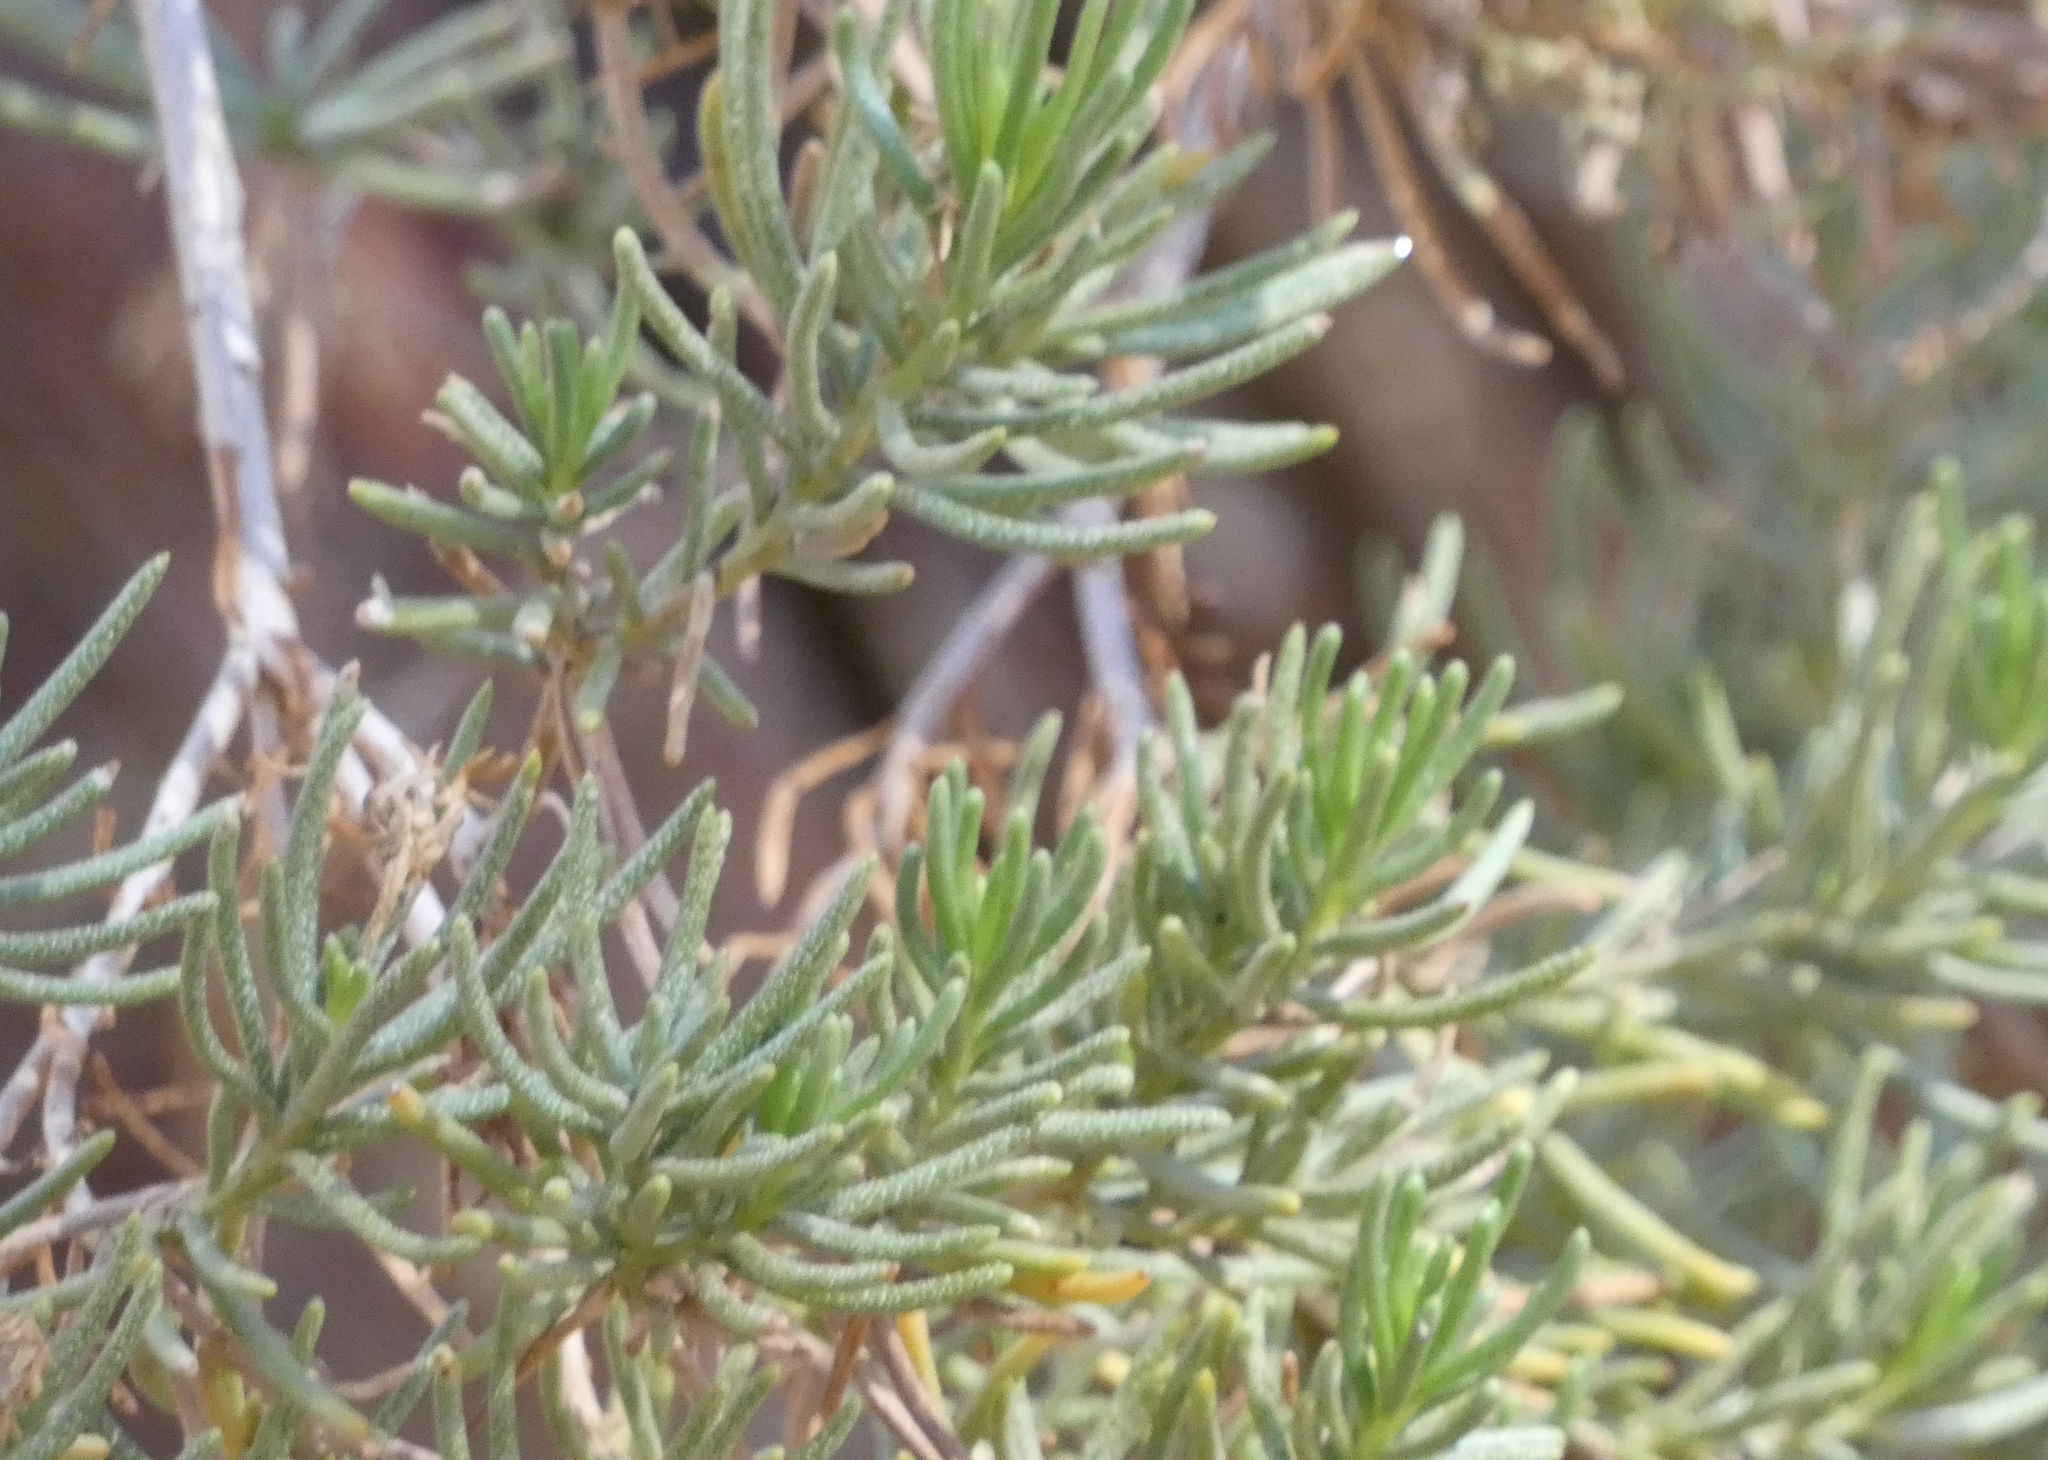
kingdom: Plantae
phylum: Tracheophyta
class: Magnoliopsida
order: Asterales
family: Asteraceae
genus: Peucephyllum
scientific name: Peucephyllum schottii
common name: Pygmy-cedar
